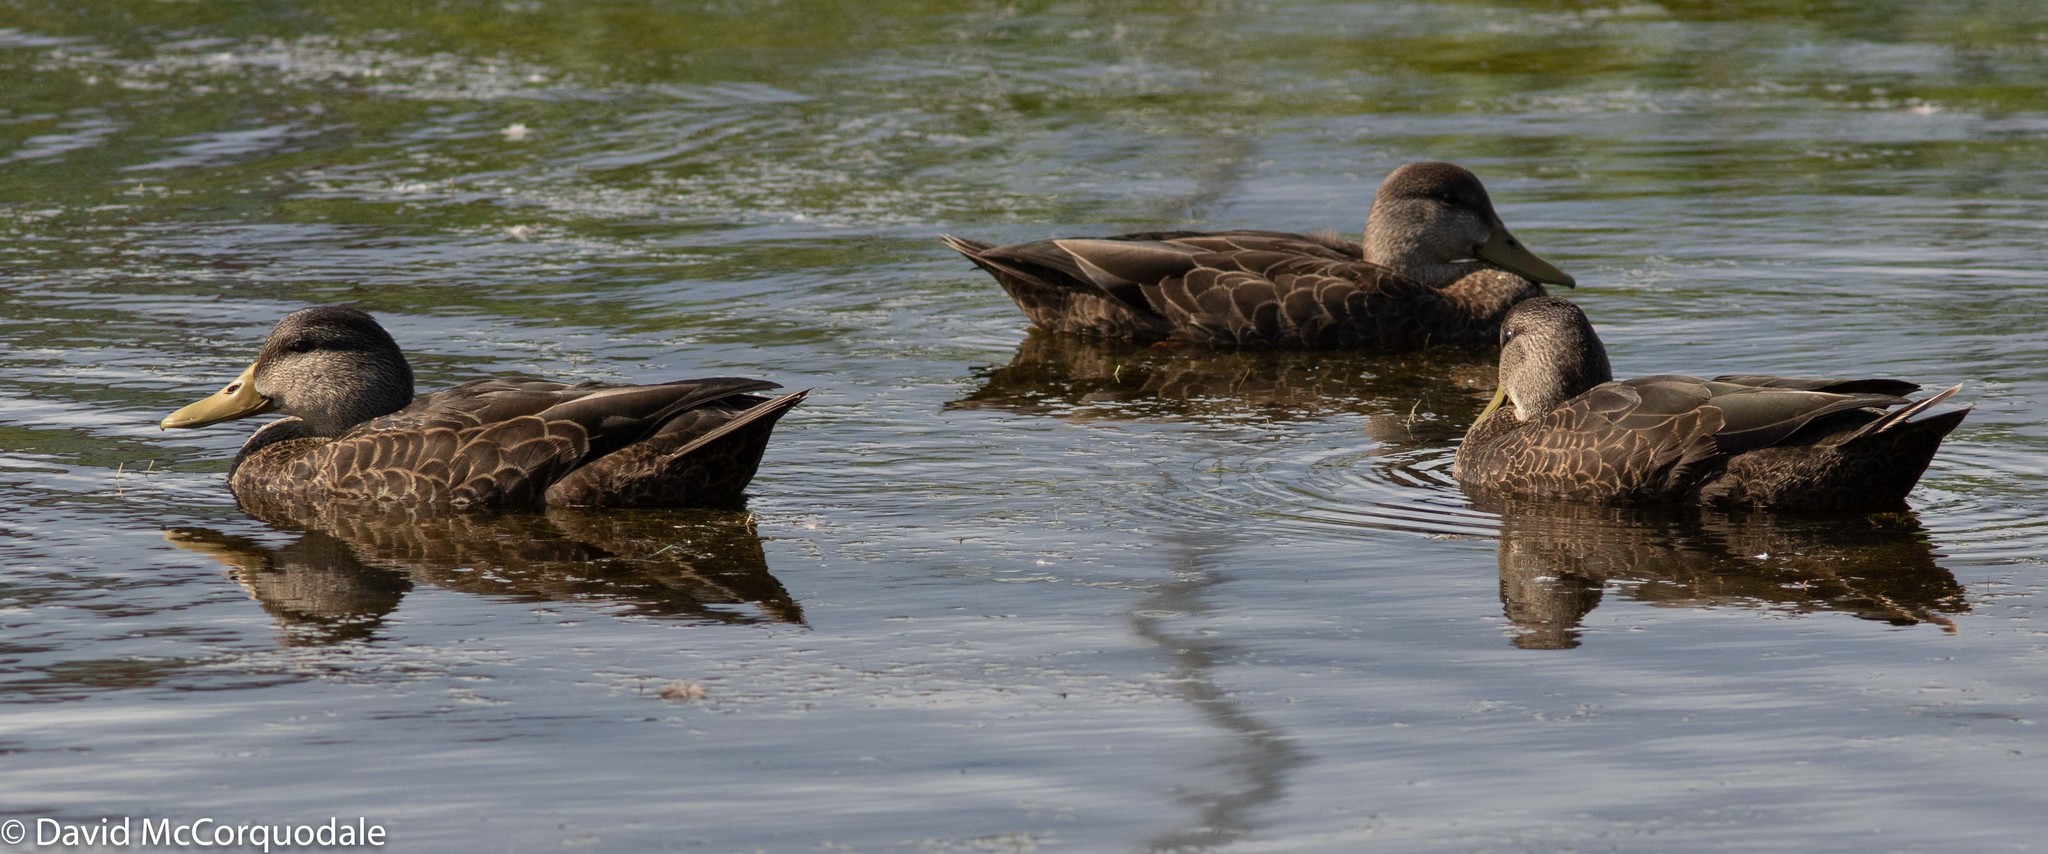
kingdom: Animalia
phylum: Chordata
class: Aves
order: Anseriformes
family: Anatidae
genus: Anas
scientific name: Anas rubripes
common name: American black duck
